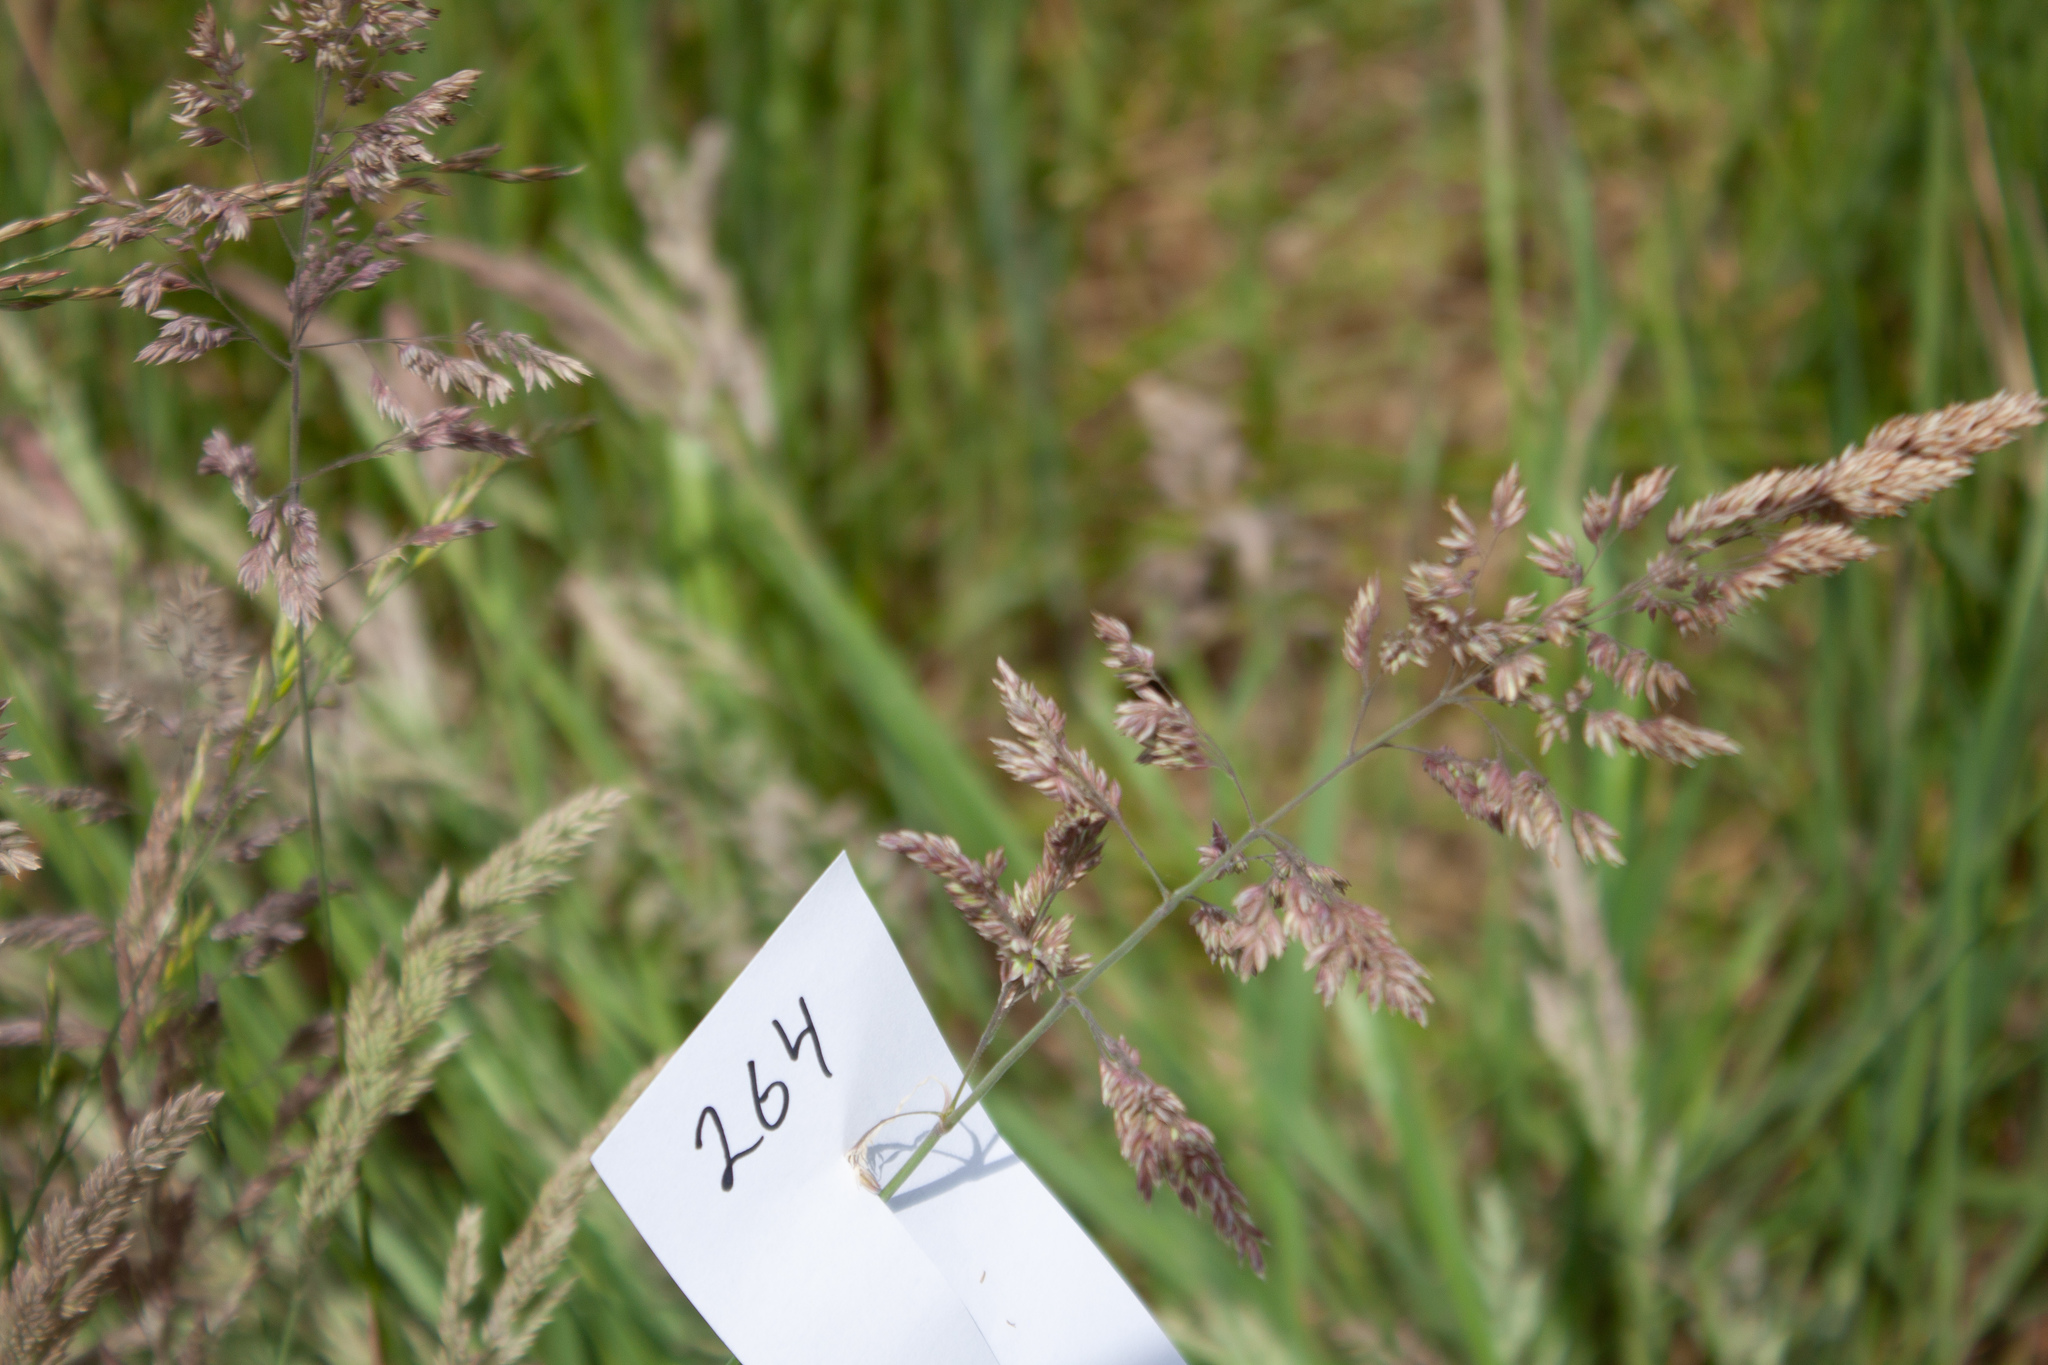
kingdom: Plantae
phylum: Tracheophyta
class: Liliopsida
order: Poales
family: Poaceae
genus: Holcus
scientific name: Holcus lanatus
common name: Yorkshire-fog
